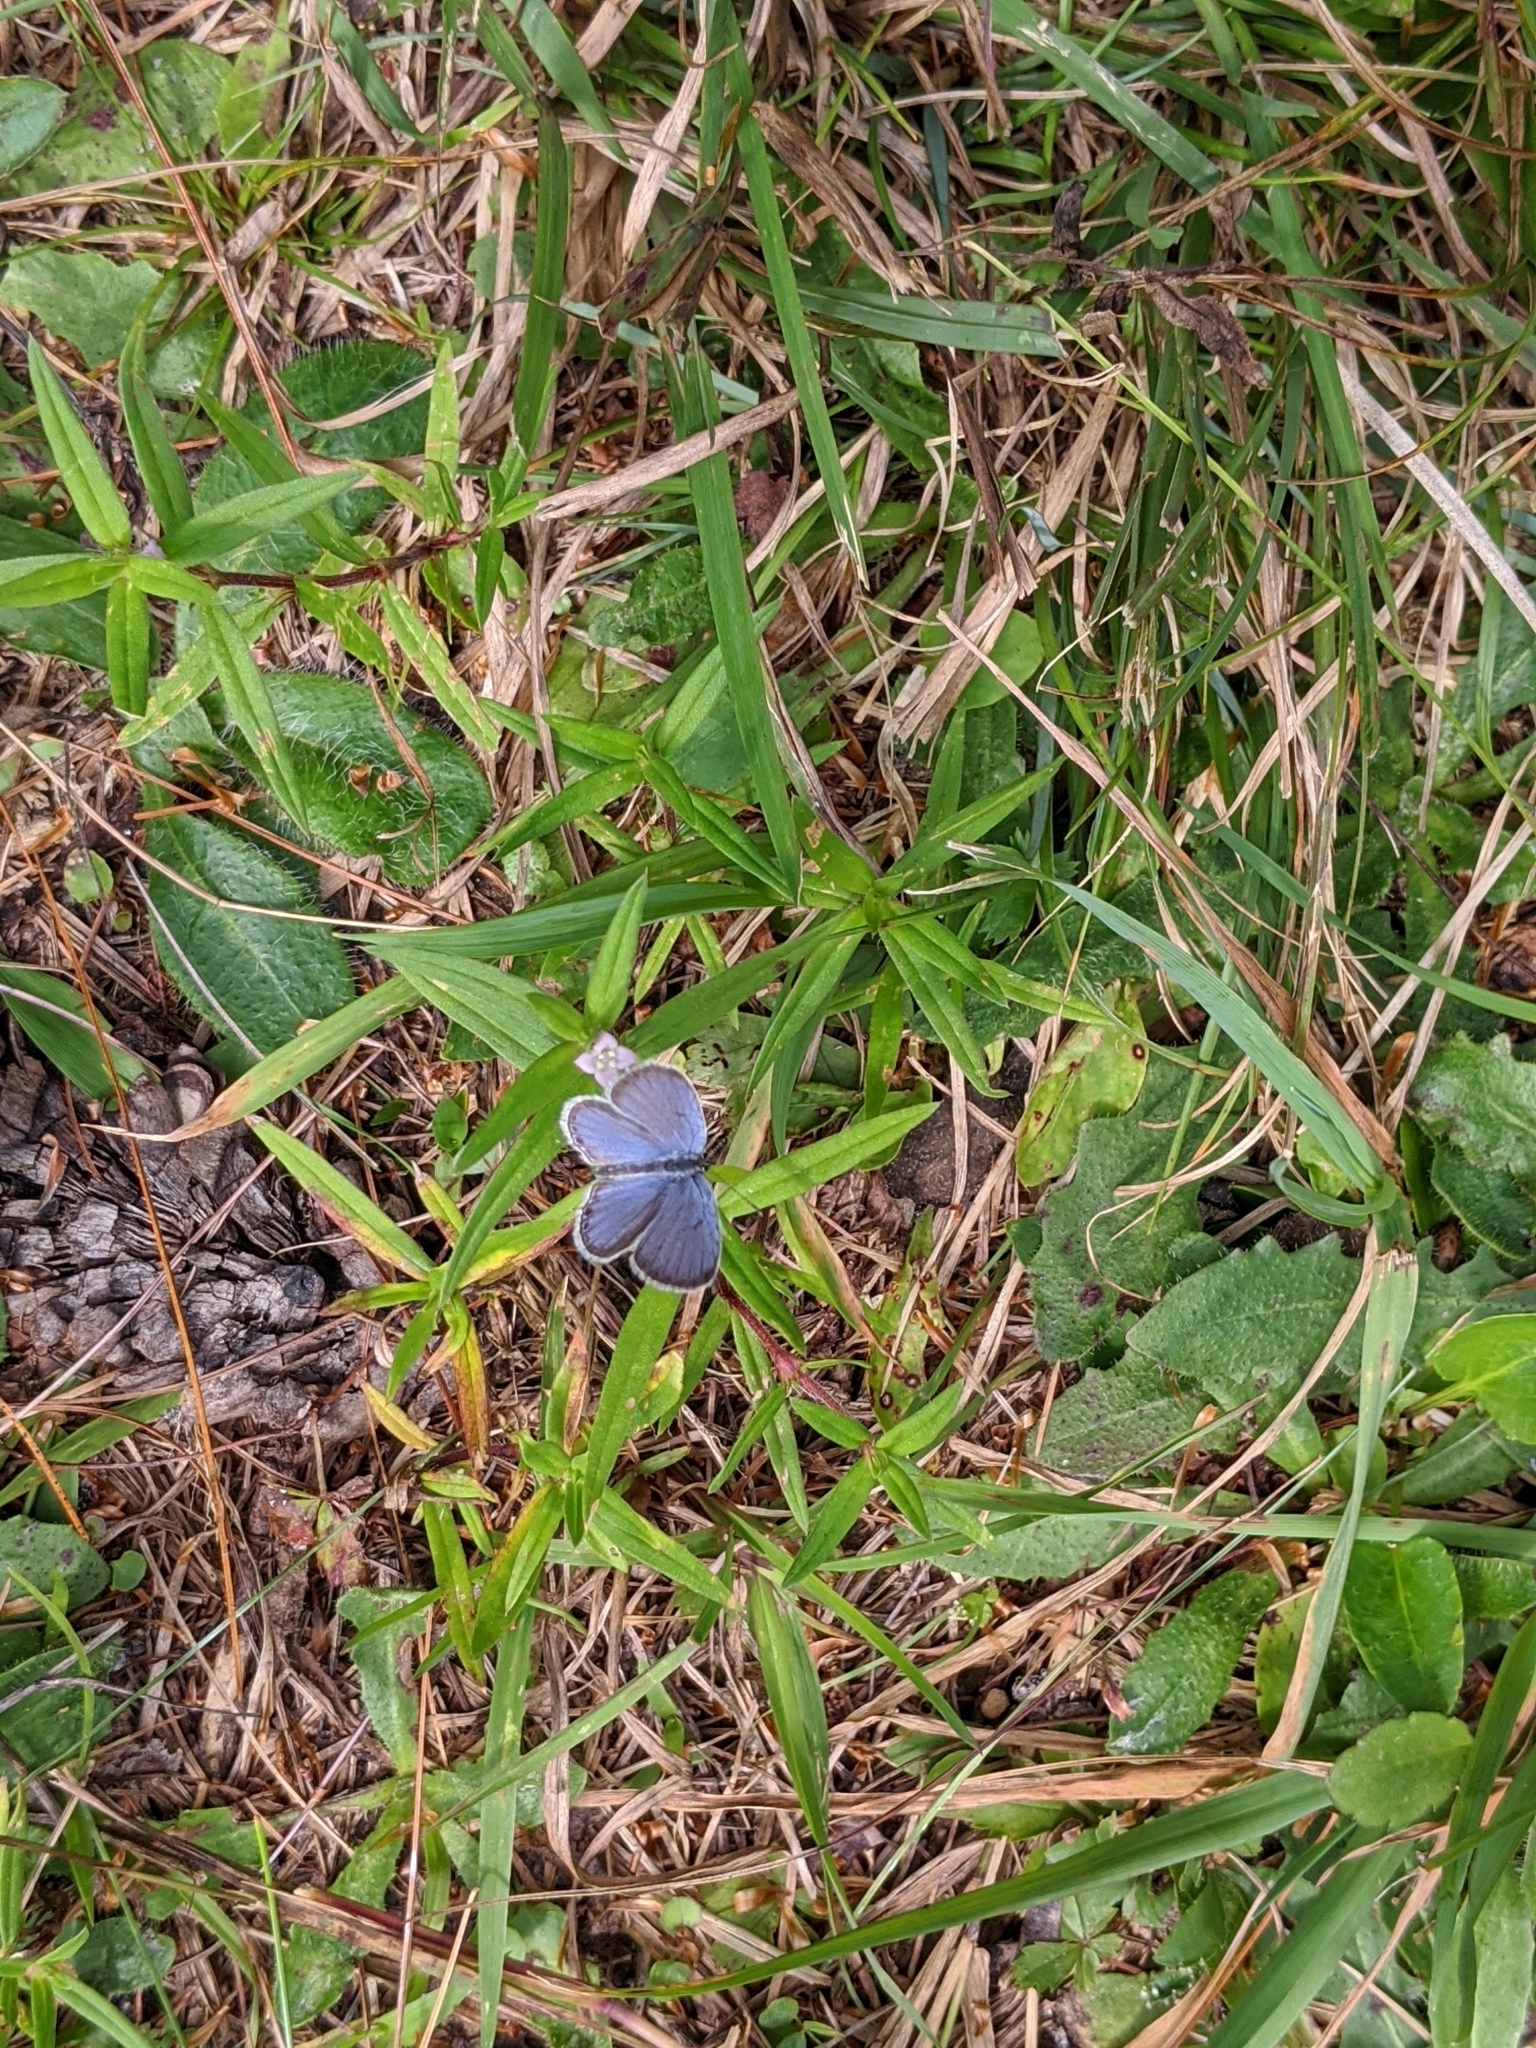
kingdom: Animalia
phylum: Arthropoda
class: Insecta
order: Lepidoptera
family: Lycaenidae
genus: Elkalyce
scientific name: Elkalyce comyntas
